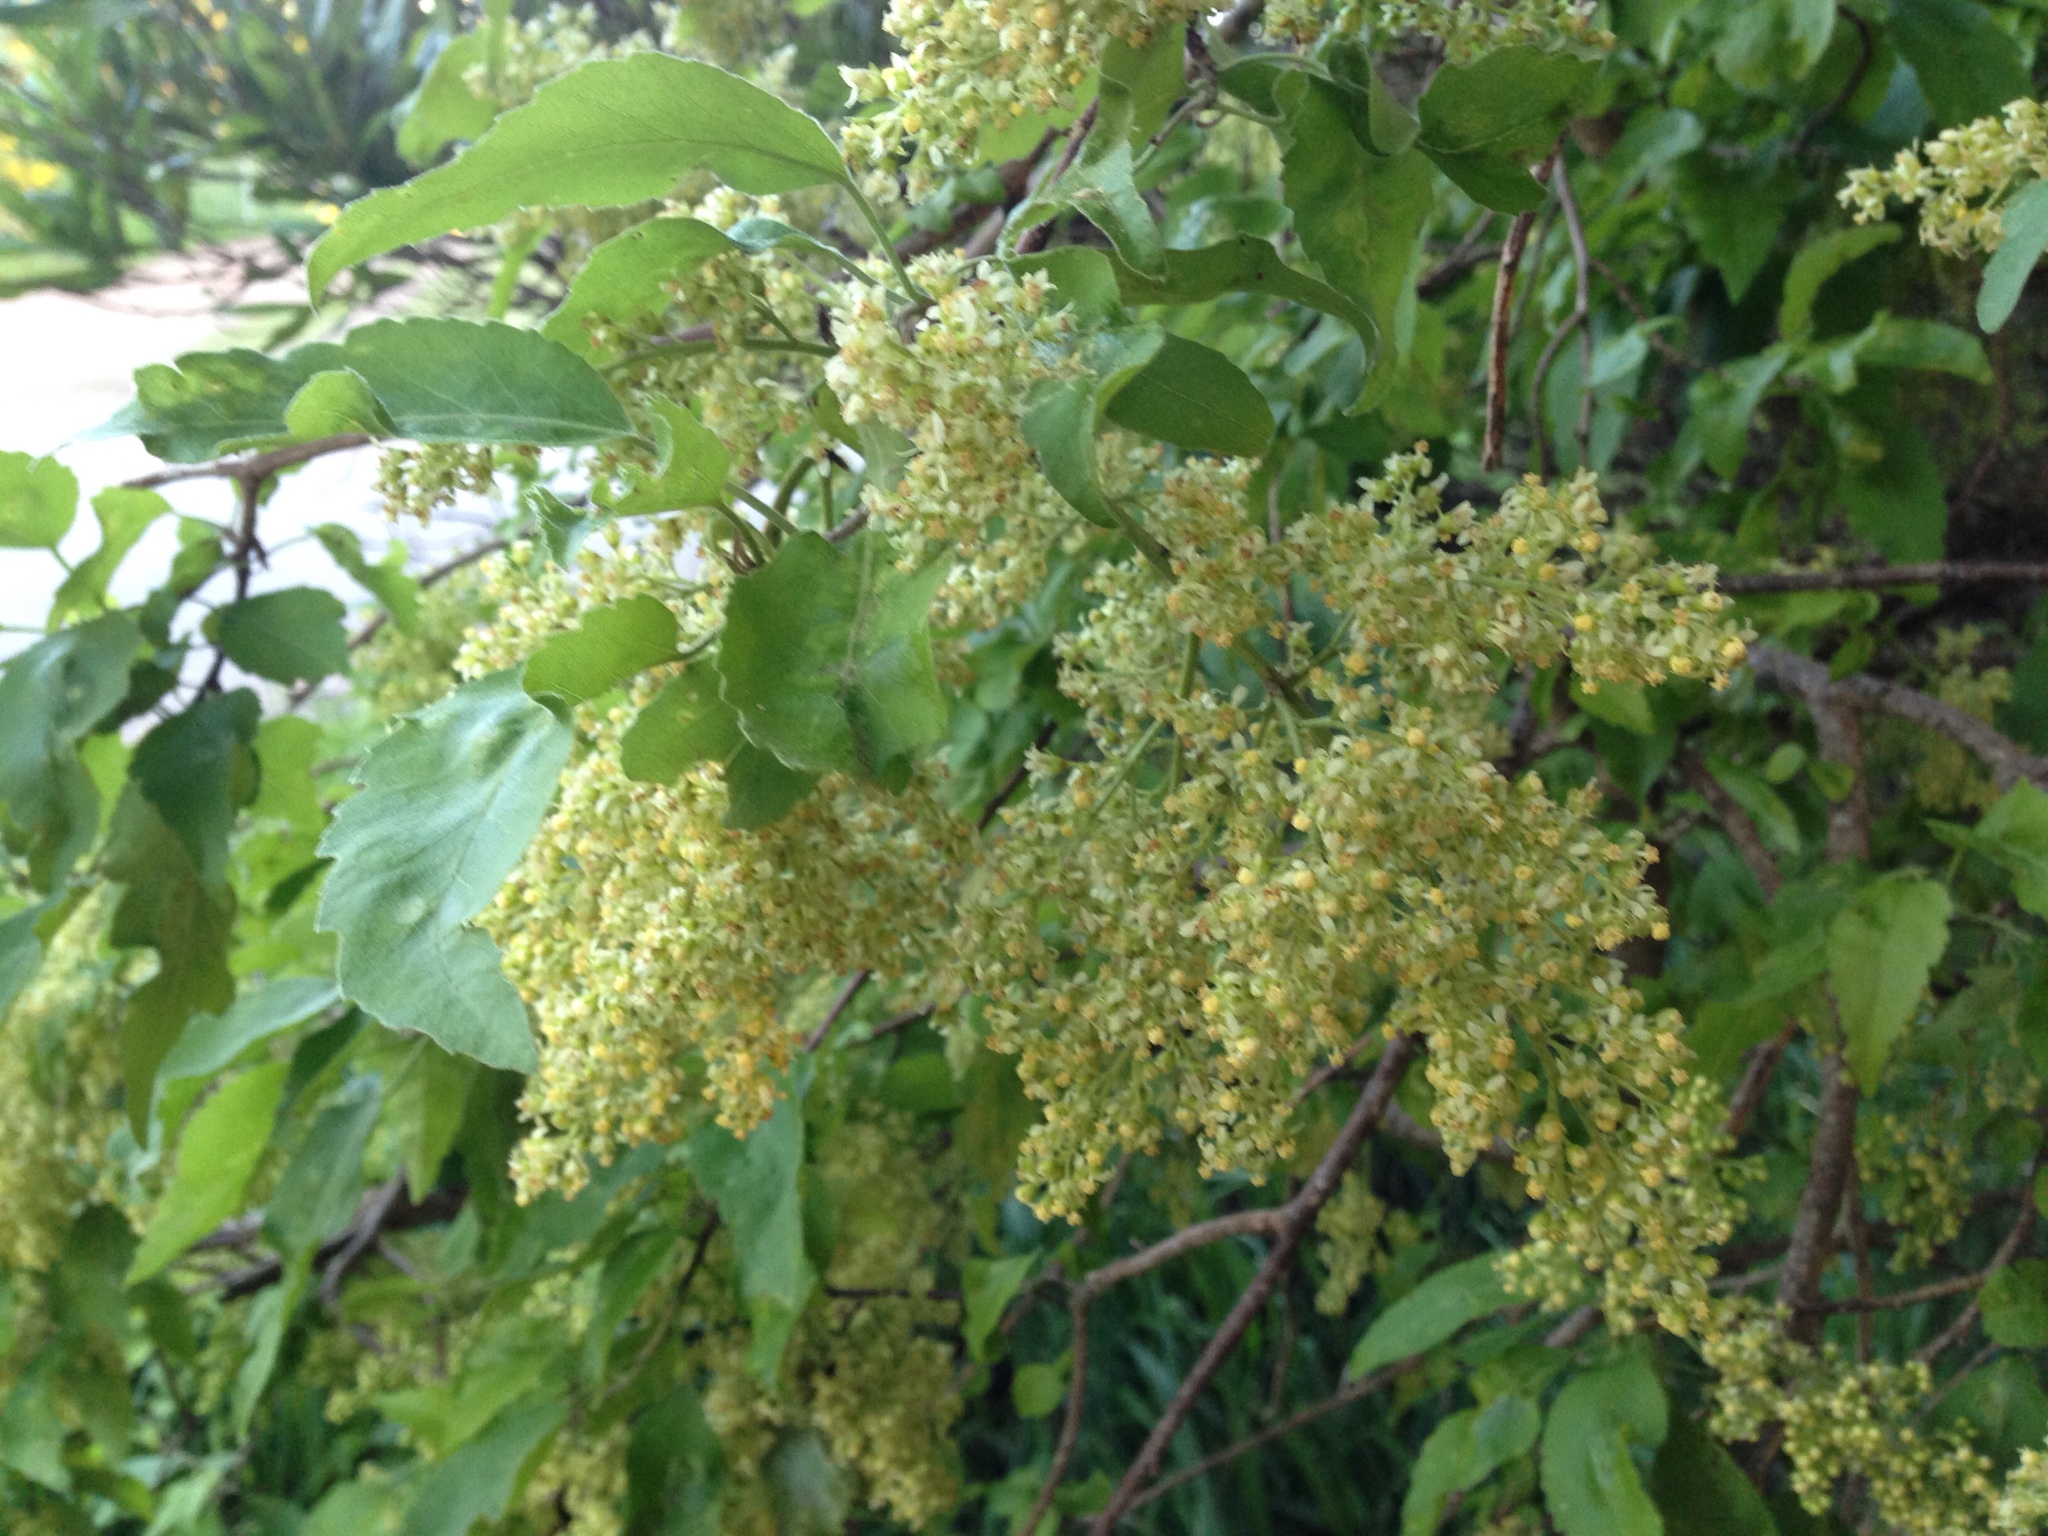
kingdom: Plantae
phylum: Tracheophyta
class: Magnoliopsida
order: Malvales
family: Malvaceae
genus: Plagianthus
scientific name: Plagianthus regius
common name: Manatu
